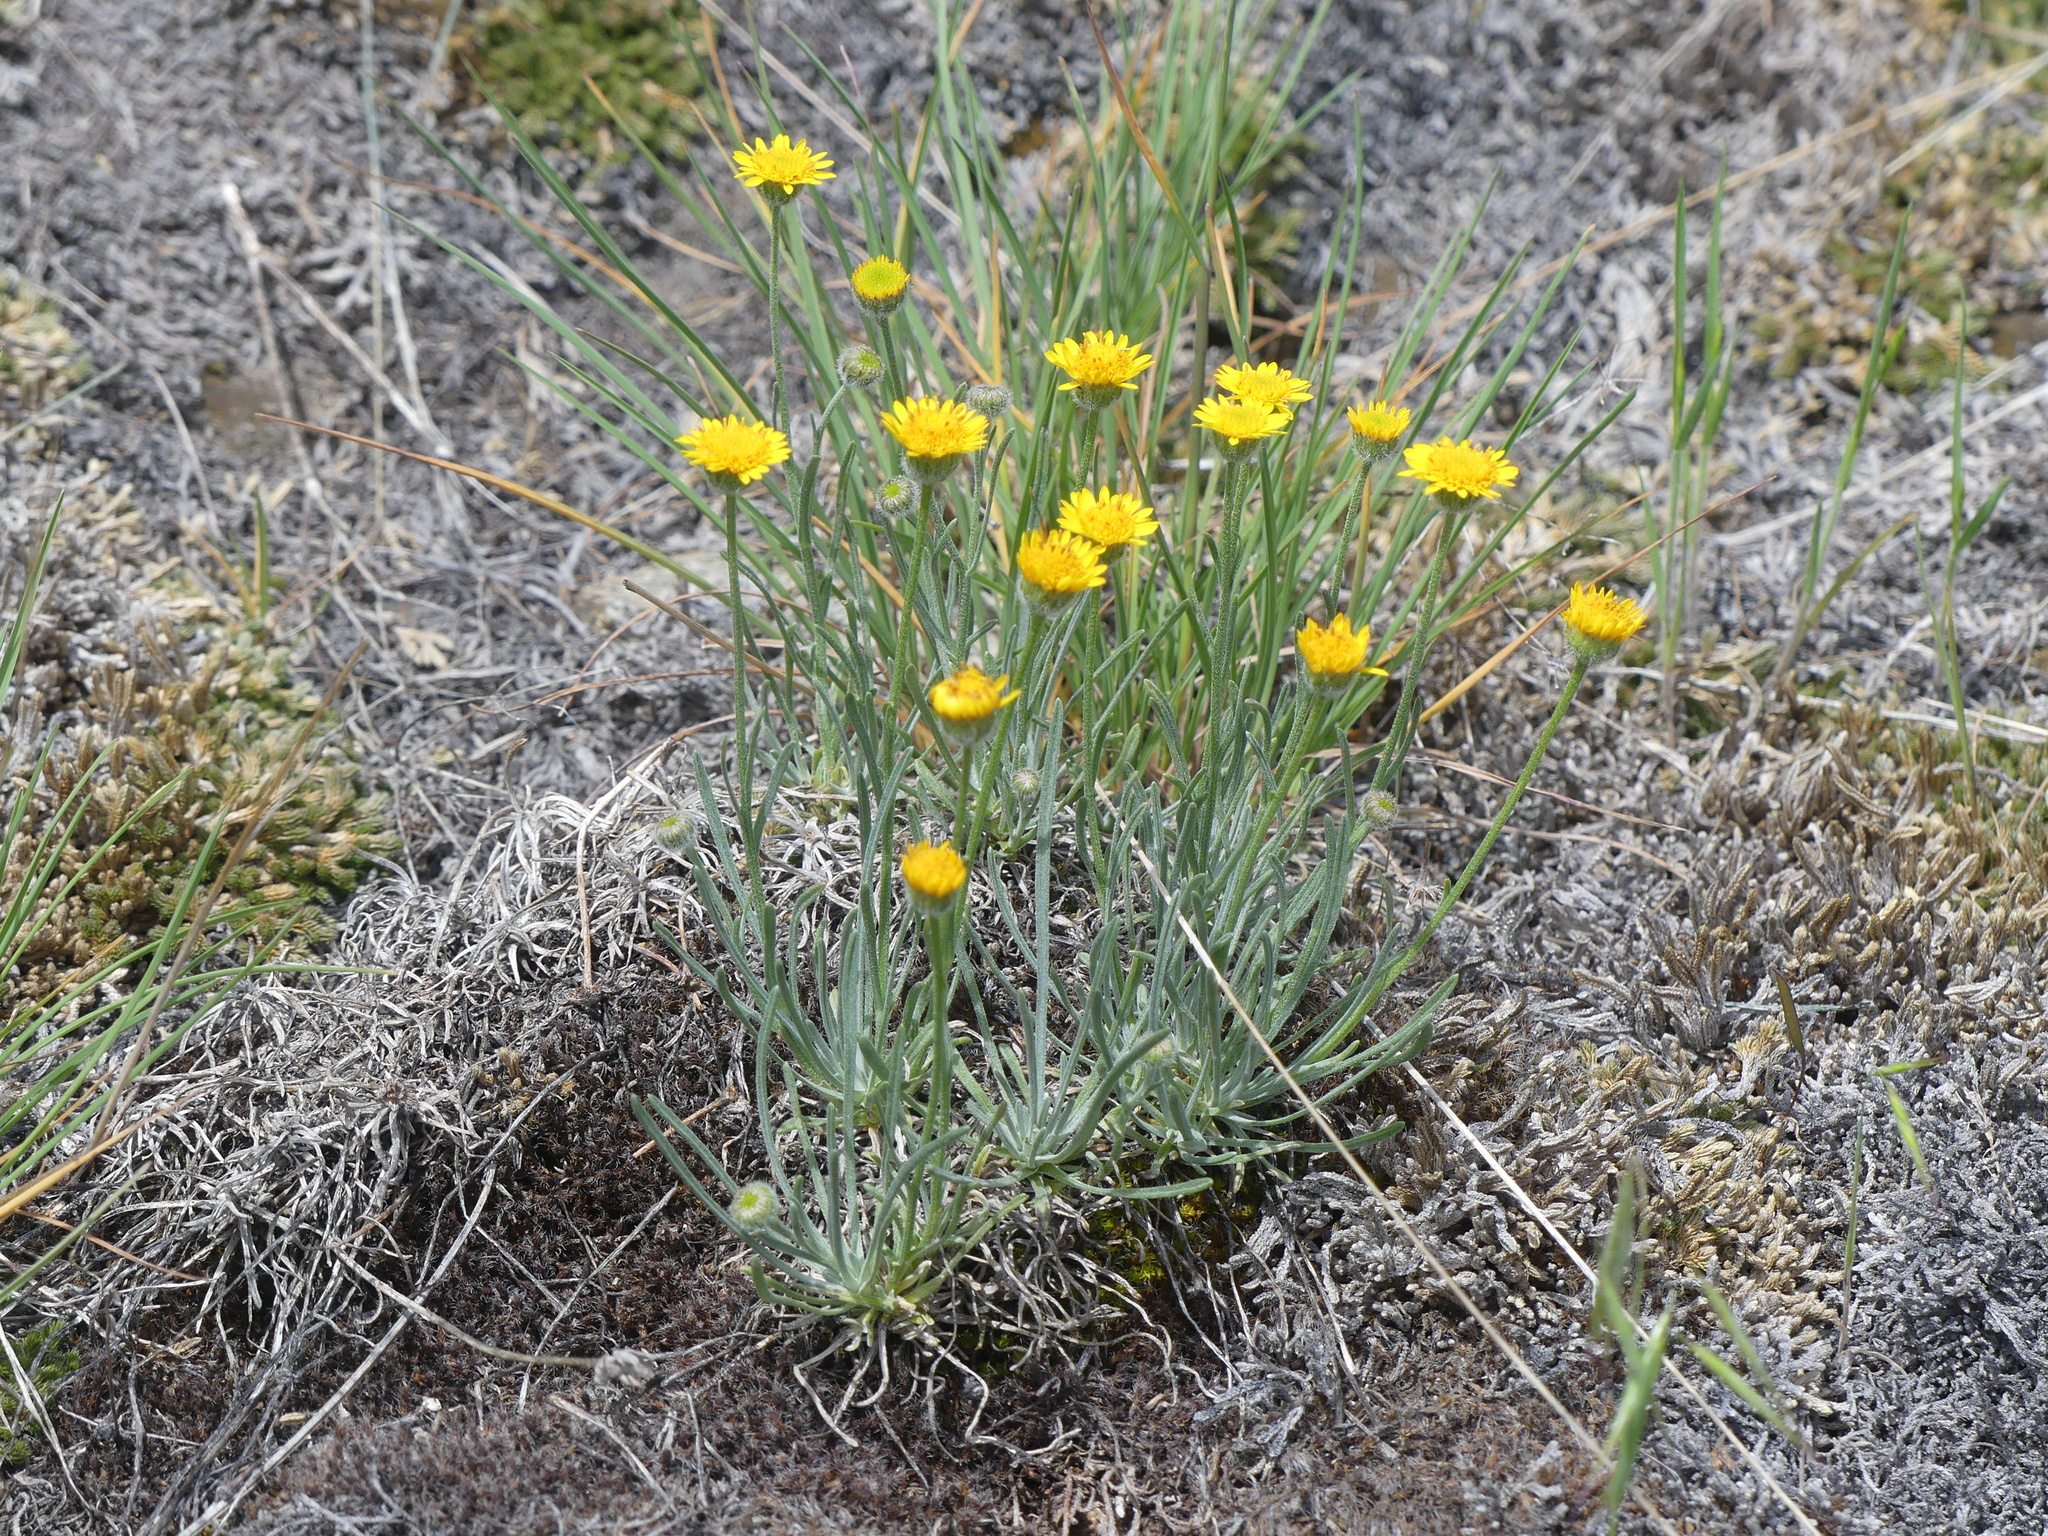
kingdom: Plantae
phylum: Tracheophyta
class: Magnoliopsida
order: Asterales
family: Asteraceae
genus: Erigeron
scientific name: Erigeron linearis
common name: Desert yellow fleabane
